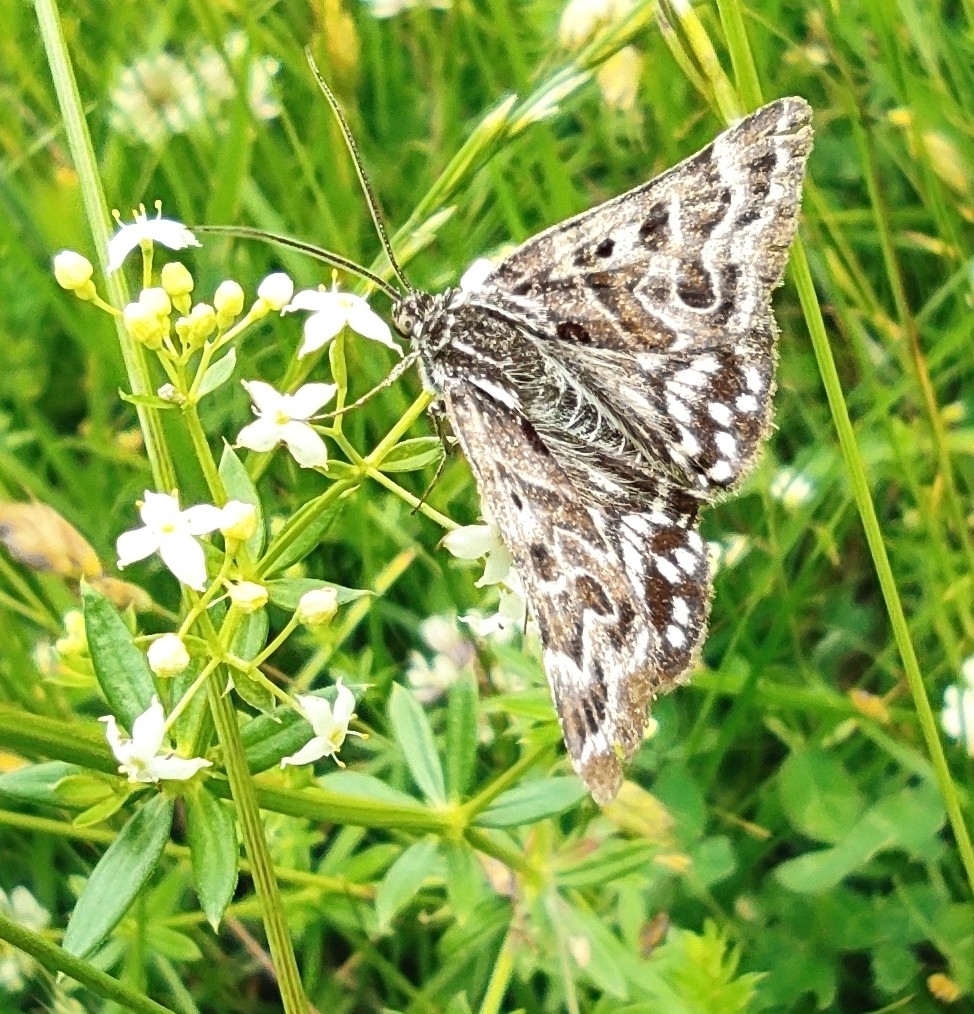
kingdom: Animalia
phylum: Arthropoda
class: Insecta
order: Lepidoptera
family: Erebidae
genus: Callistege
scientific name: Callistege mi
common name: Mother shipton
